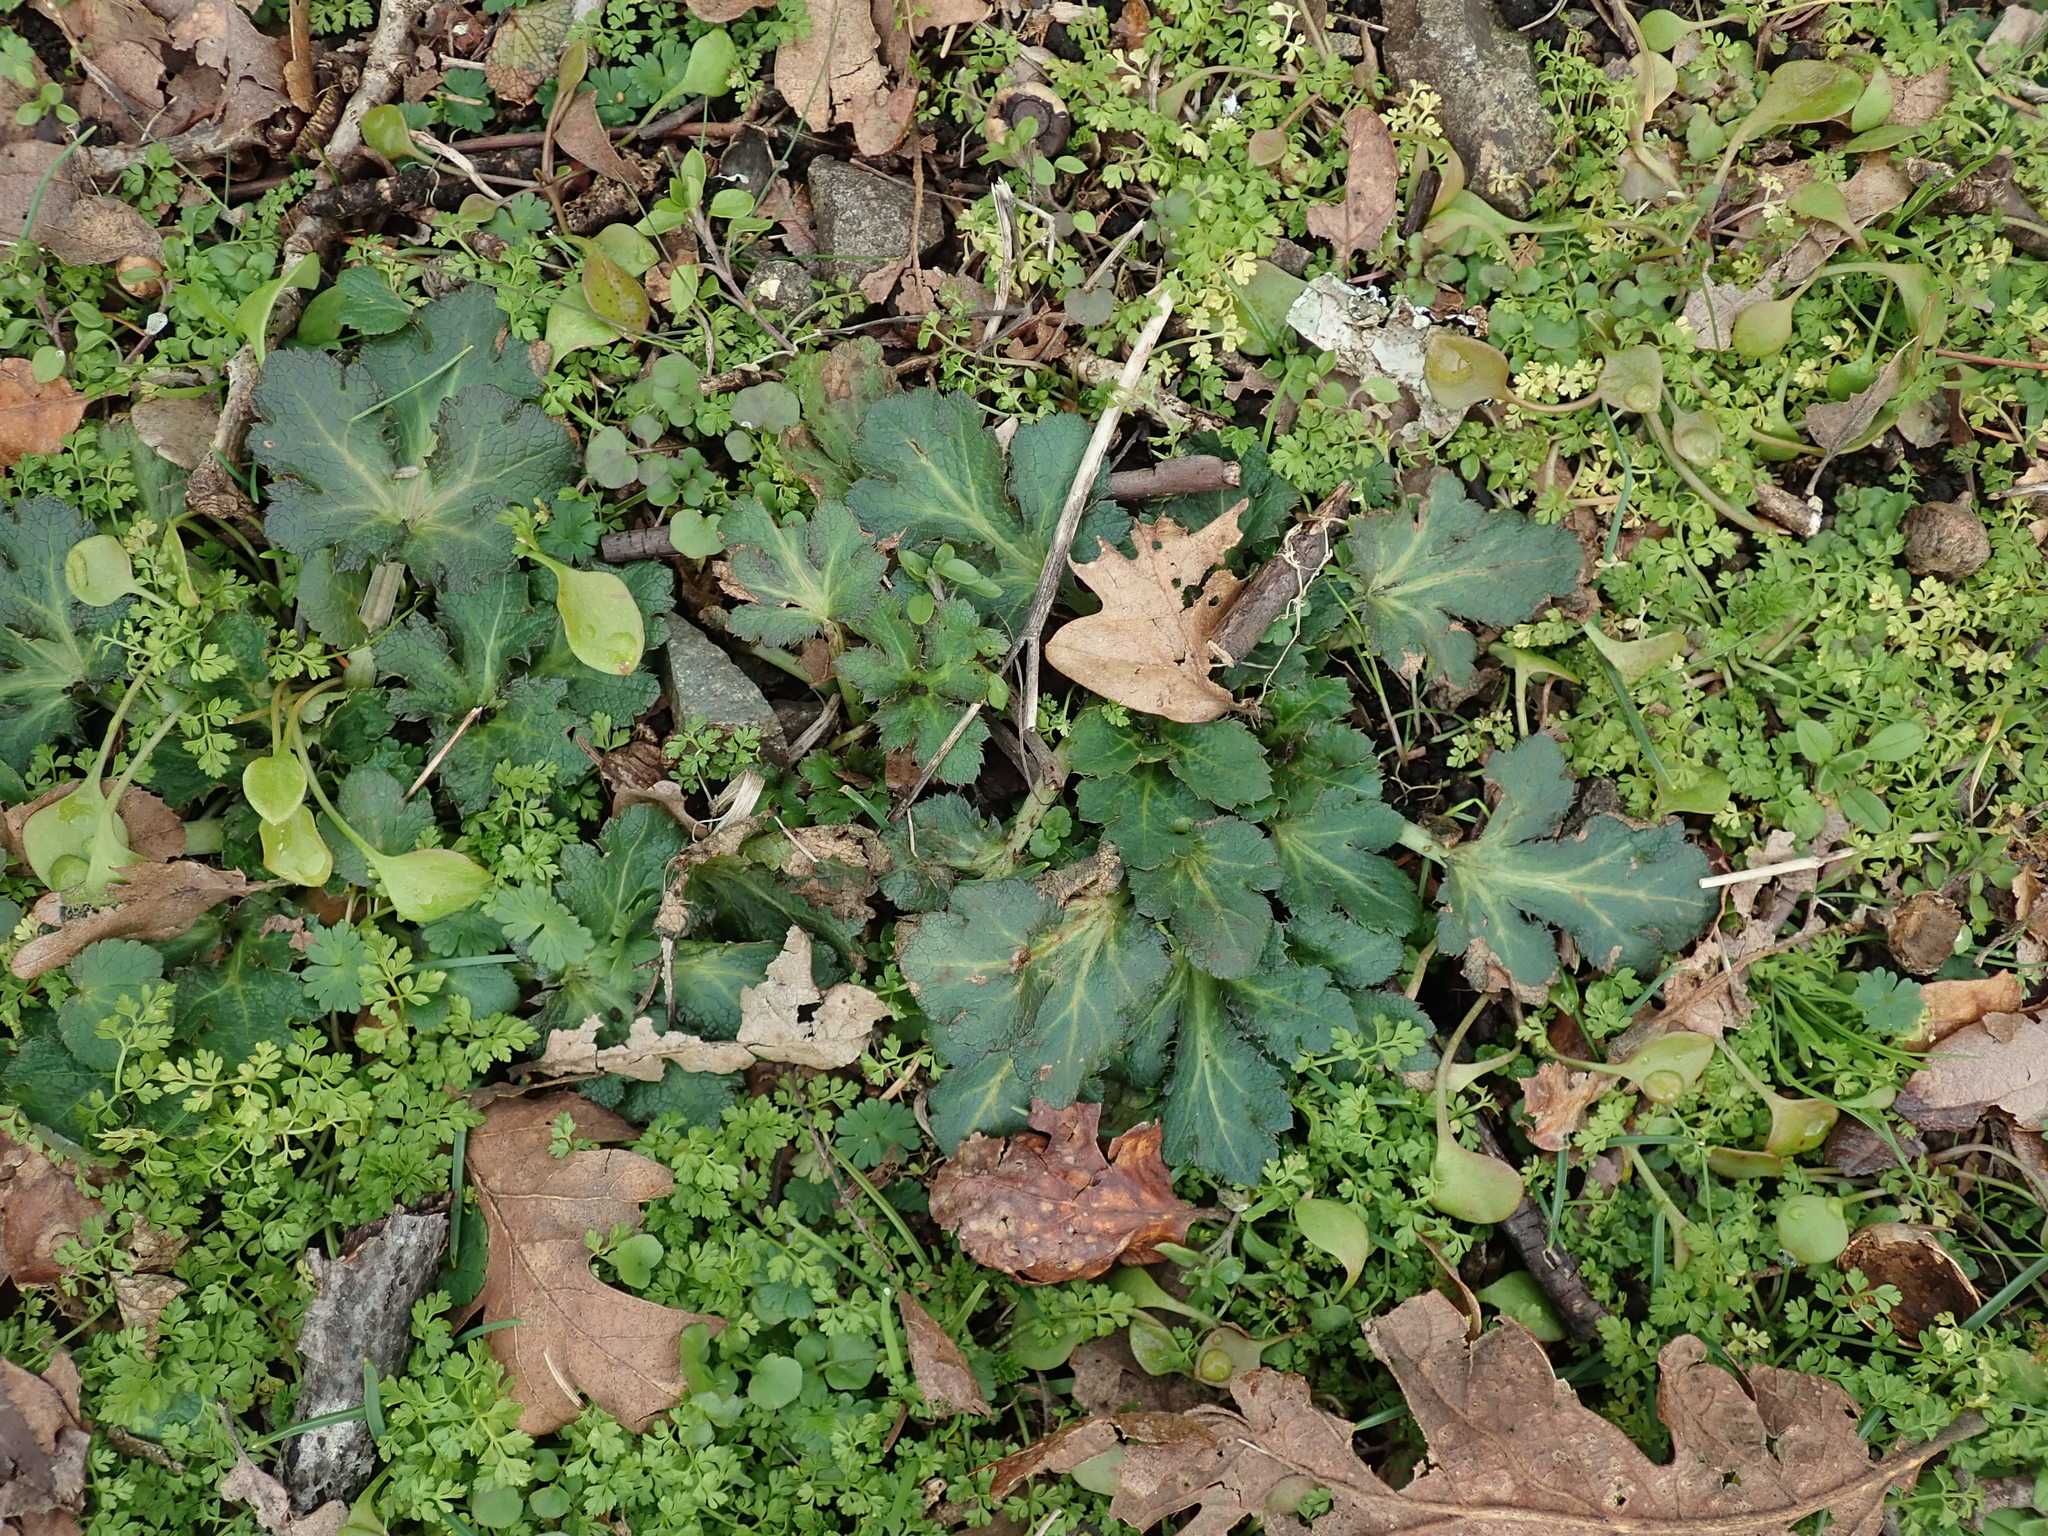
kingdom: Plantae
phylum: Tracheophyta
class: Magnoliopsida
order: Apiales
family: Apiaceae
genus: Sanicula
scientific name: Sanicula crassicaulis
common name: Western snakeroot
